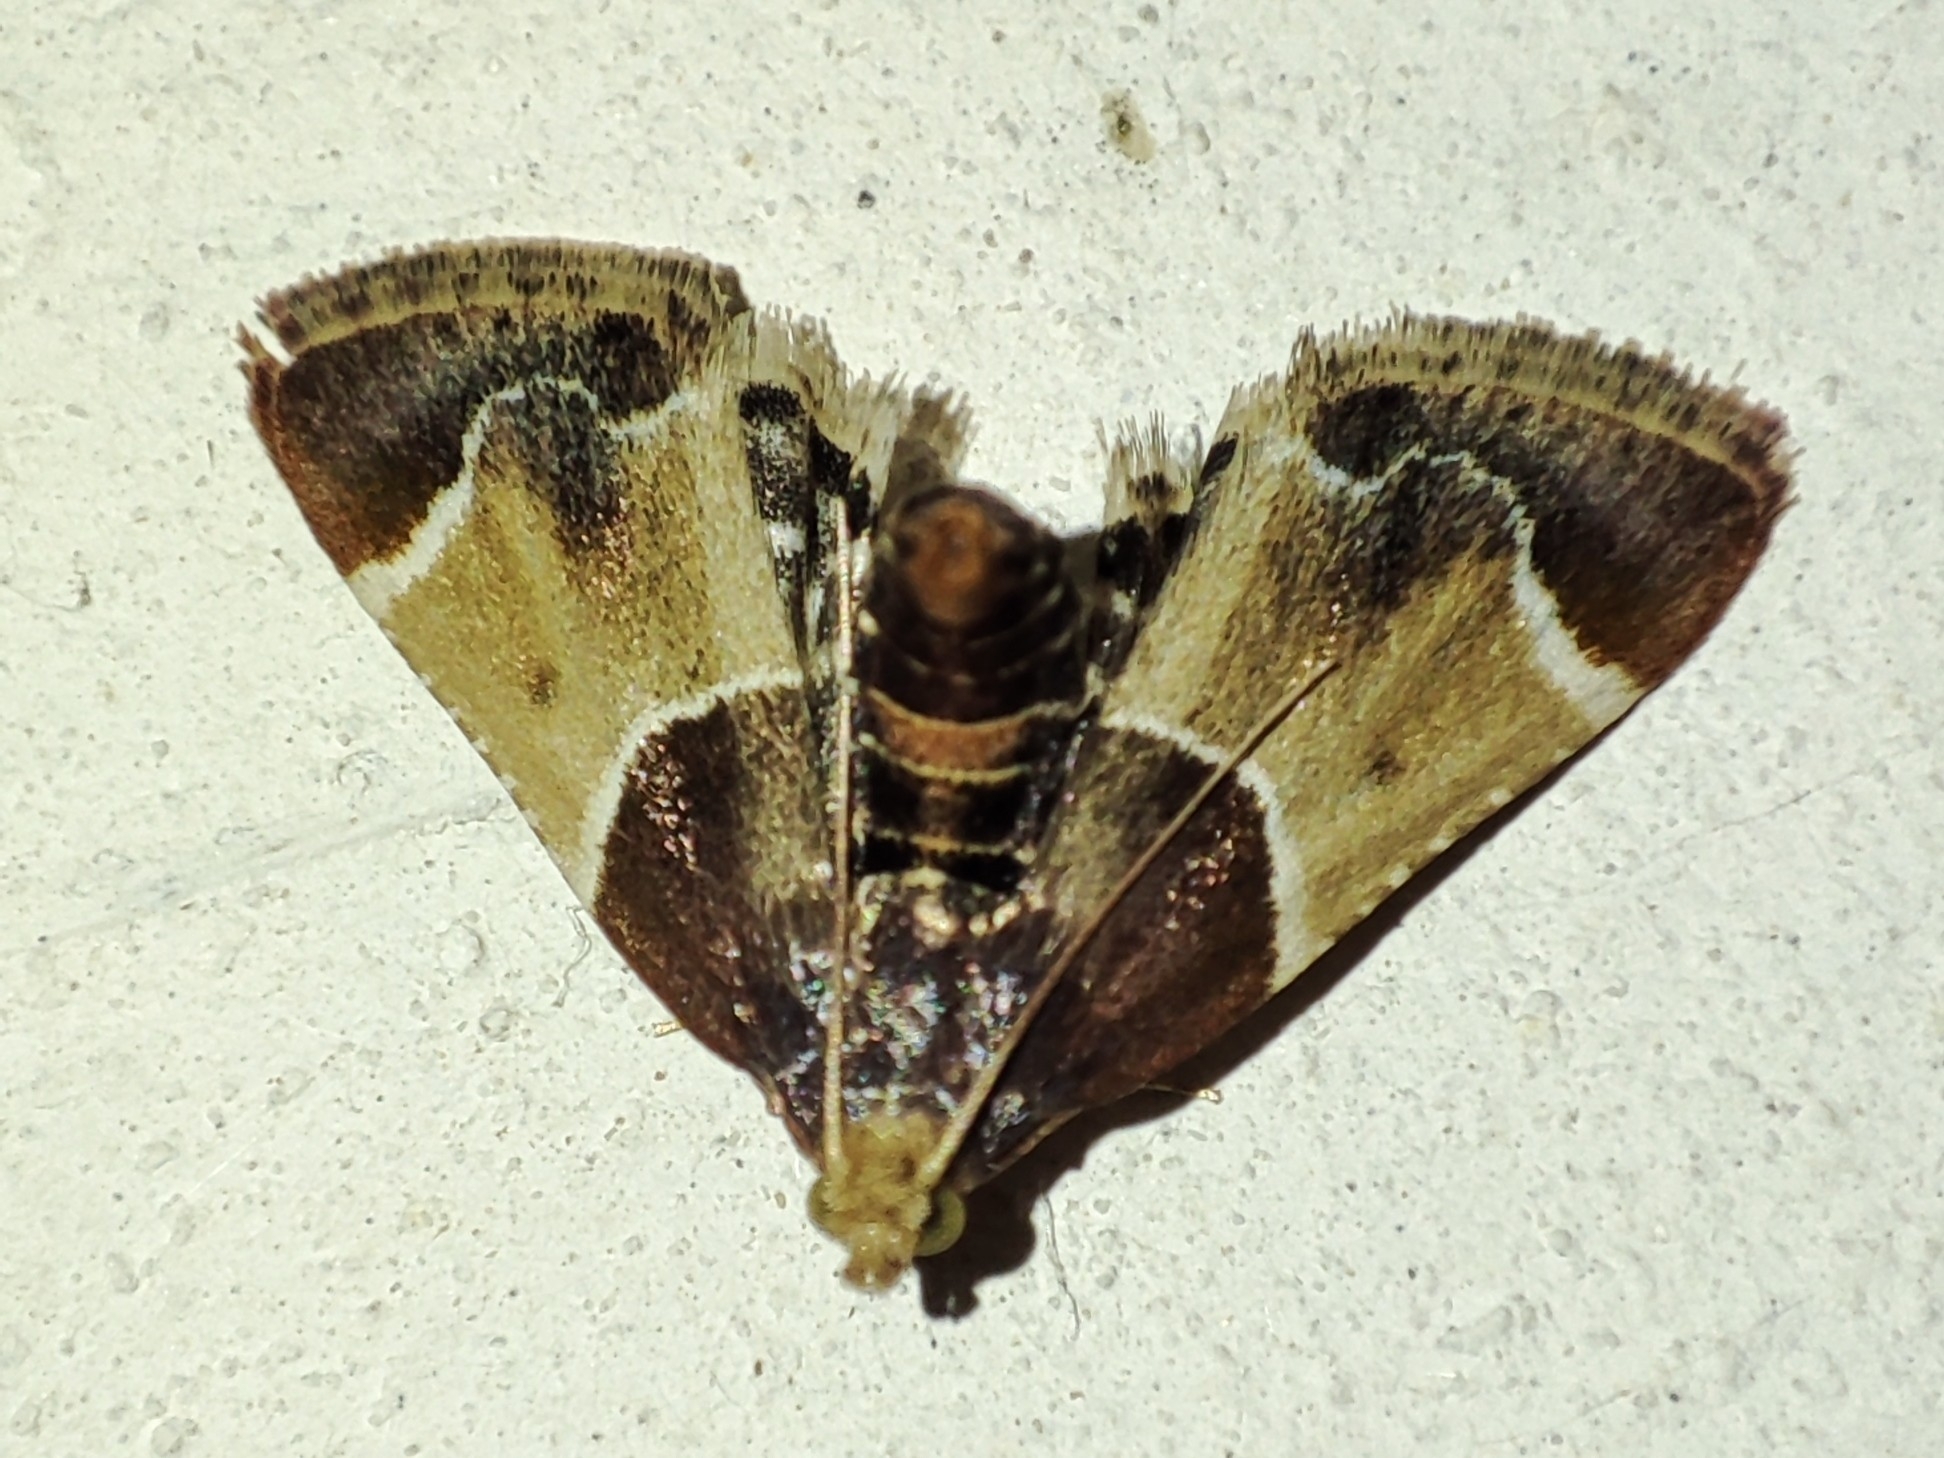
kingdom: Animalia
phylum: Arthropoda
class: Insecta
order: Lepidoptera
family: Pyralidae
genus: Pyralis
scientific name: Pyralis farinalis
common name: Meal moth
